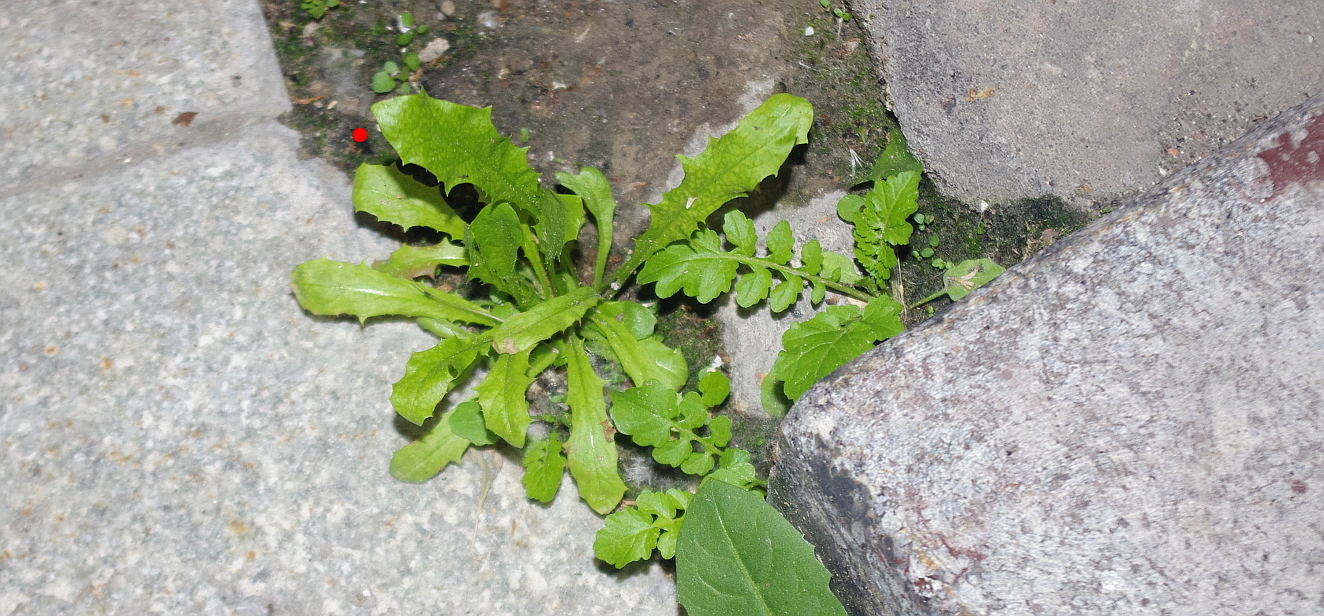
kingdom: Plantae
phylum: Tracheophyta
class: Magnoliopsida
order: Asterales
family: Asteraceae
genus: Taraxacum
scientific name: Taraxacum officinale
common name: Common dandelion
